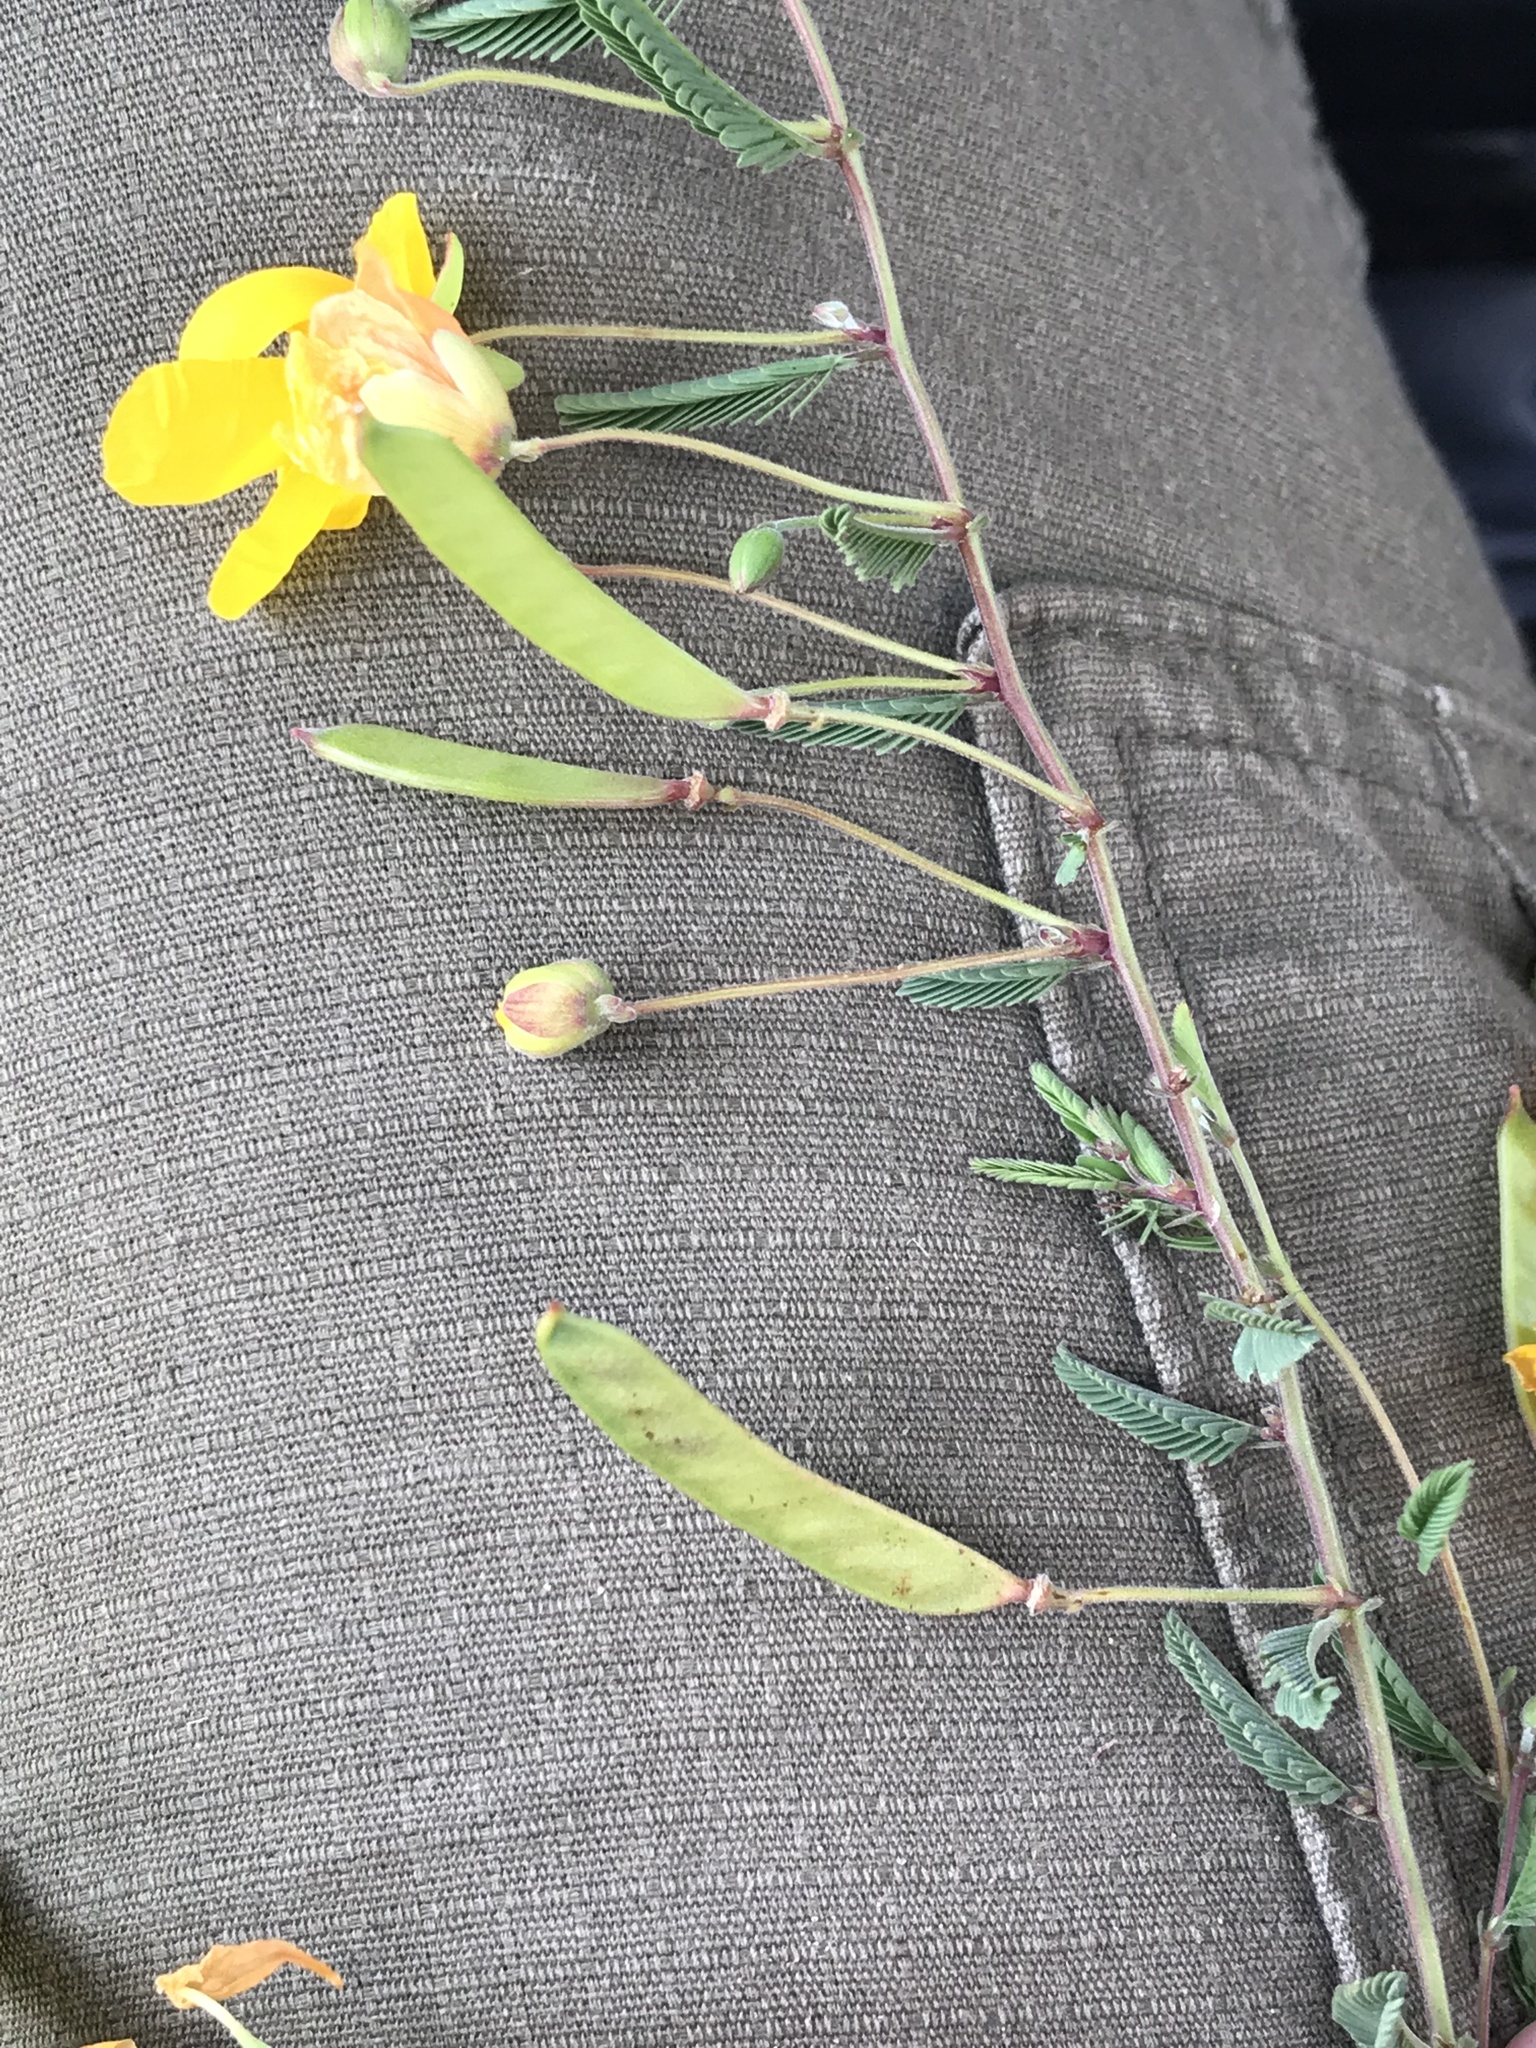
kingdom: Plantae
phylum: Tracheophyta
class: Magnoliopsida
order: Fabales
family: Fabaceae
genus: Chamaecrista
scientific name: Chamaecrista fasciculata
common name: Golden cassia
